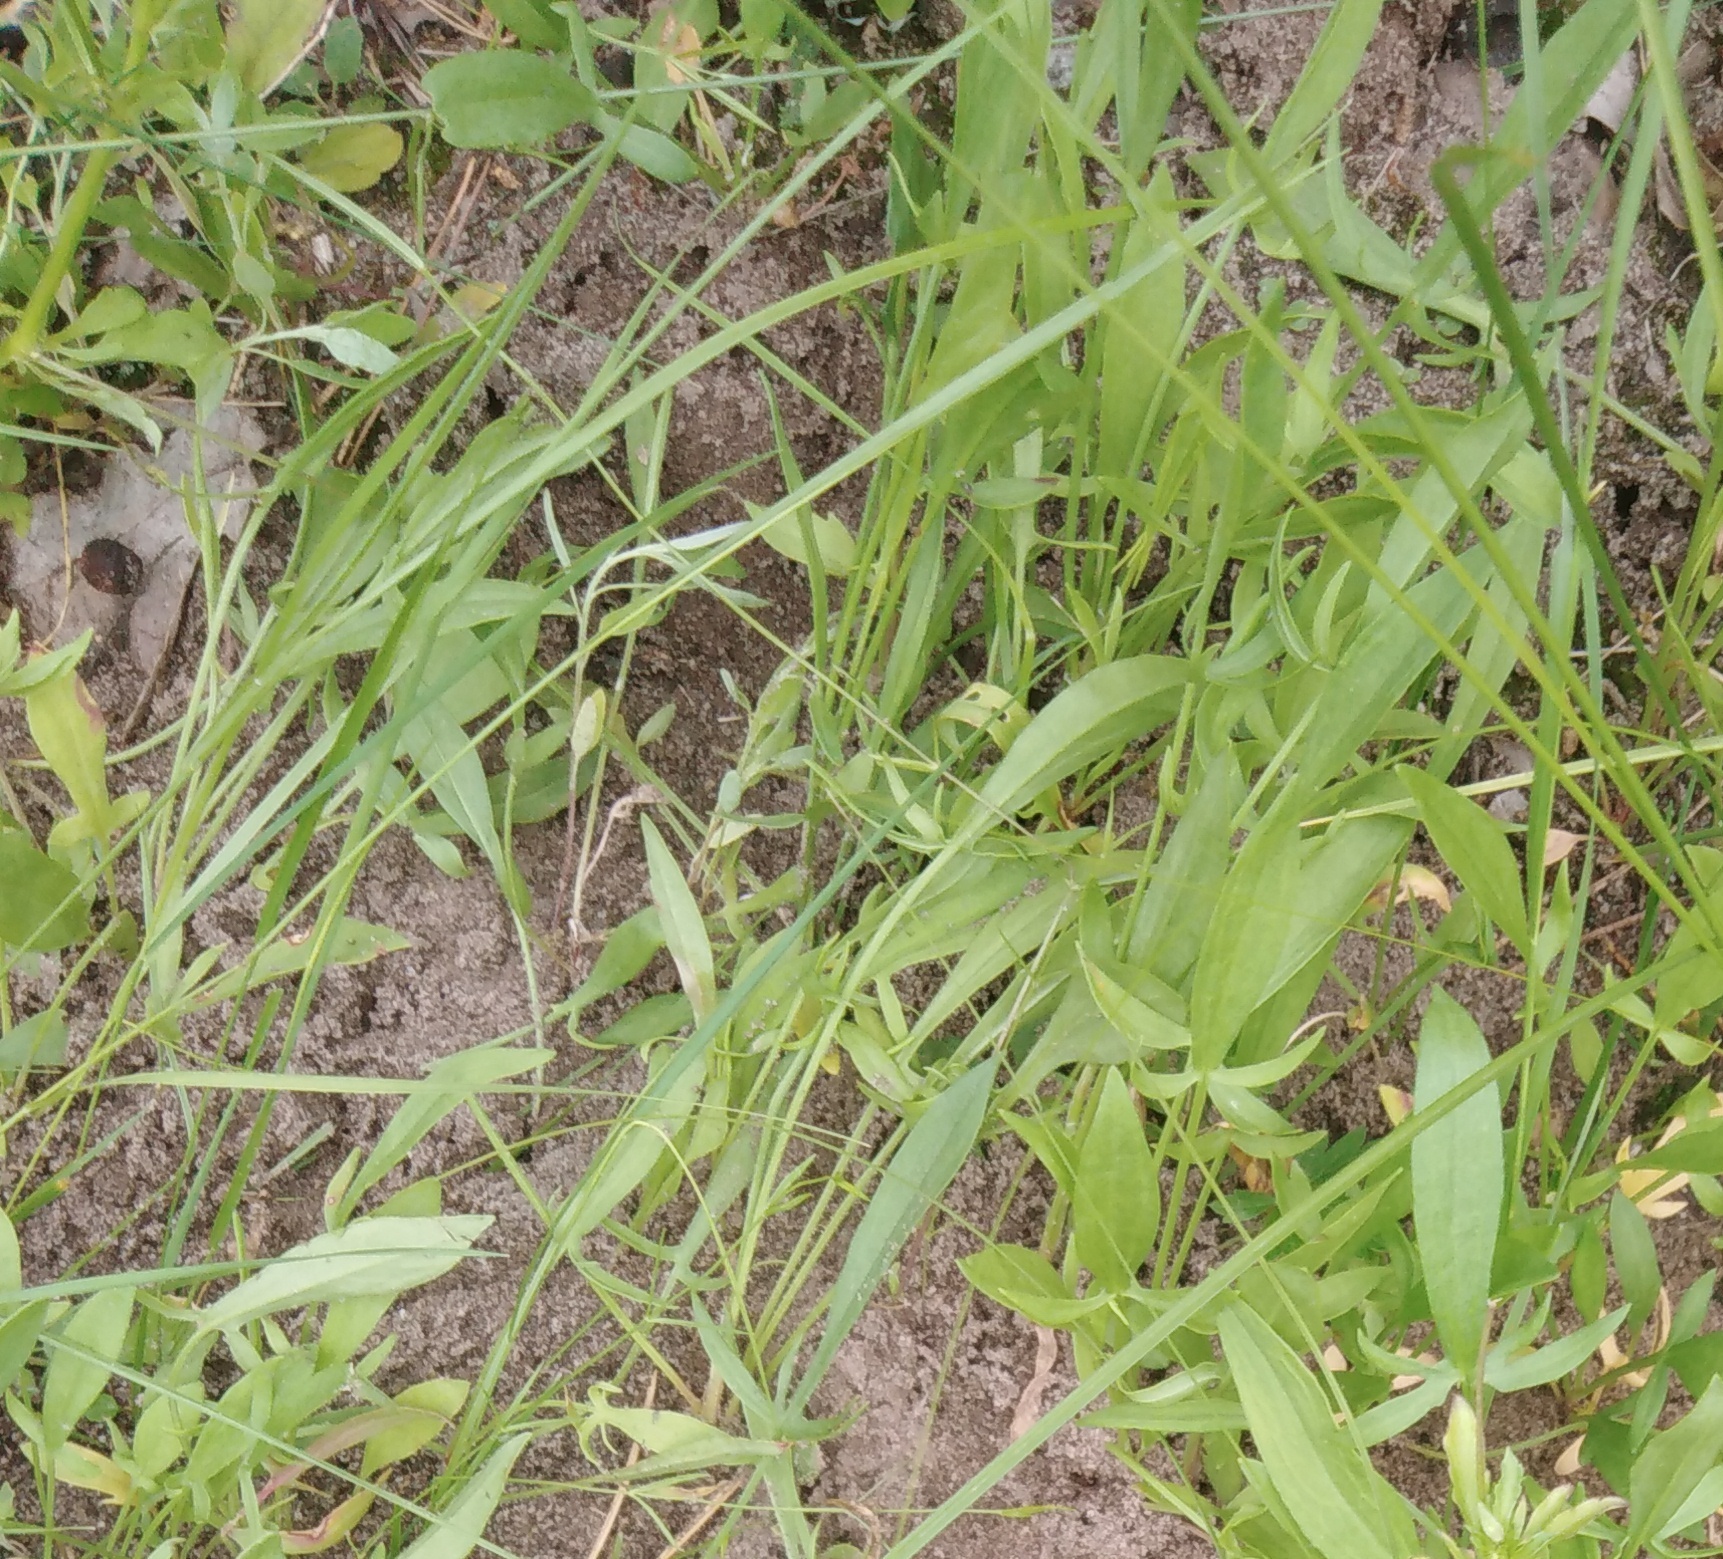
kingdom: Plantae
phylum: Tracheophyta
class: Magnoliopsida
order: Caryophyllales
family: Polygonaceae
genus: Rumex
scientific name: Rumex acetosella
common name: Common sheep sorrel
